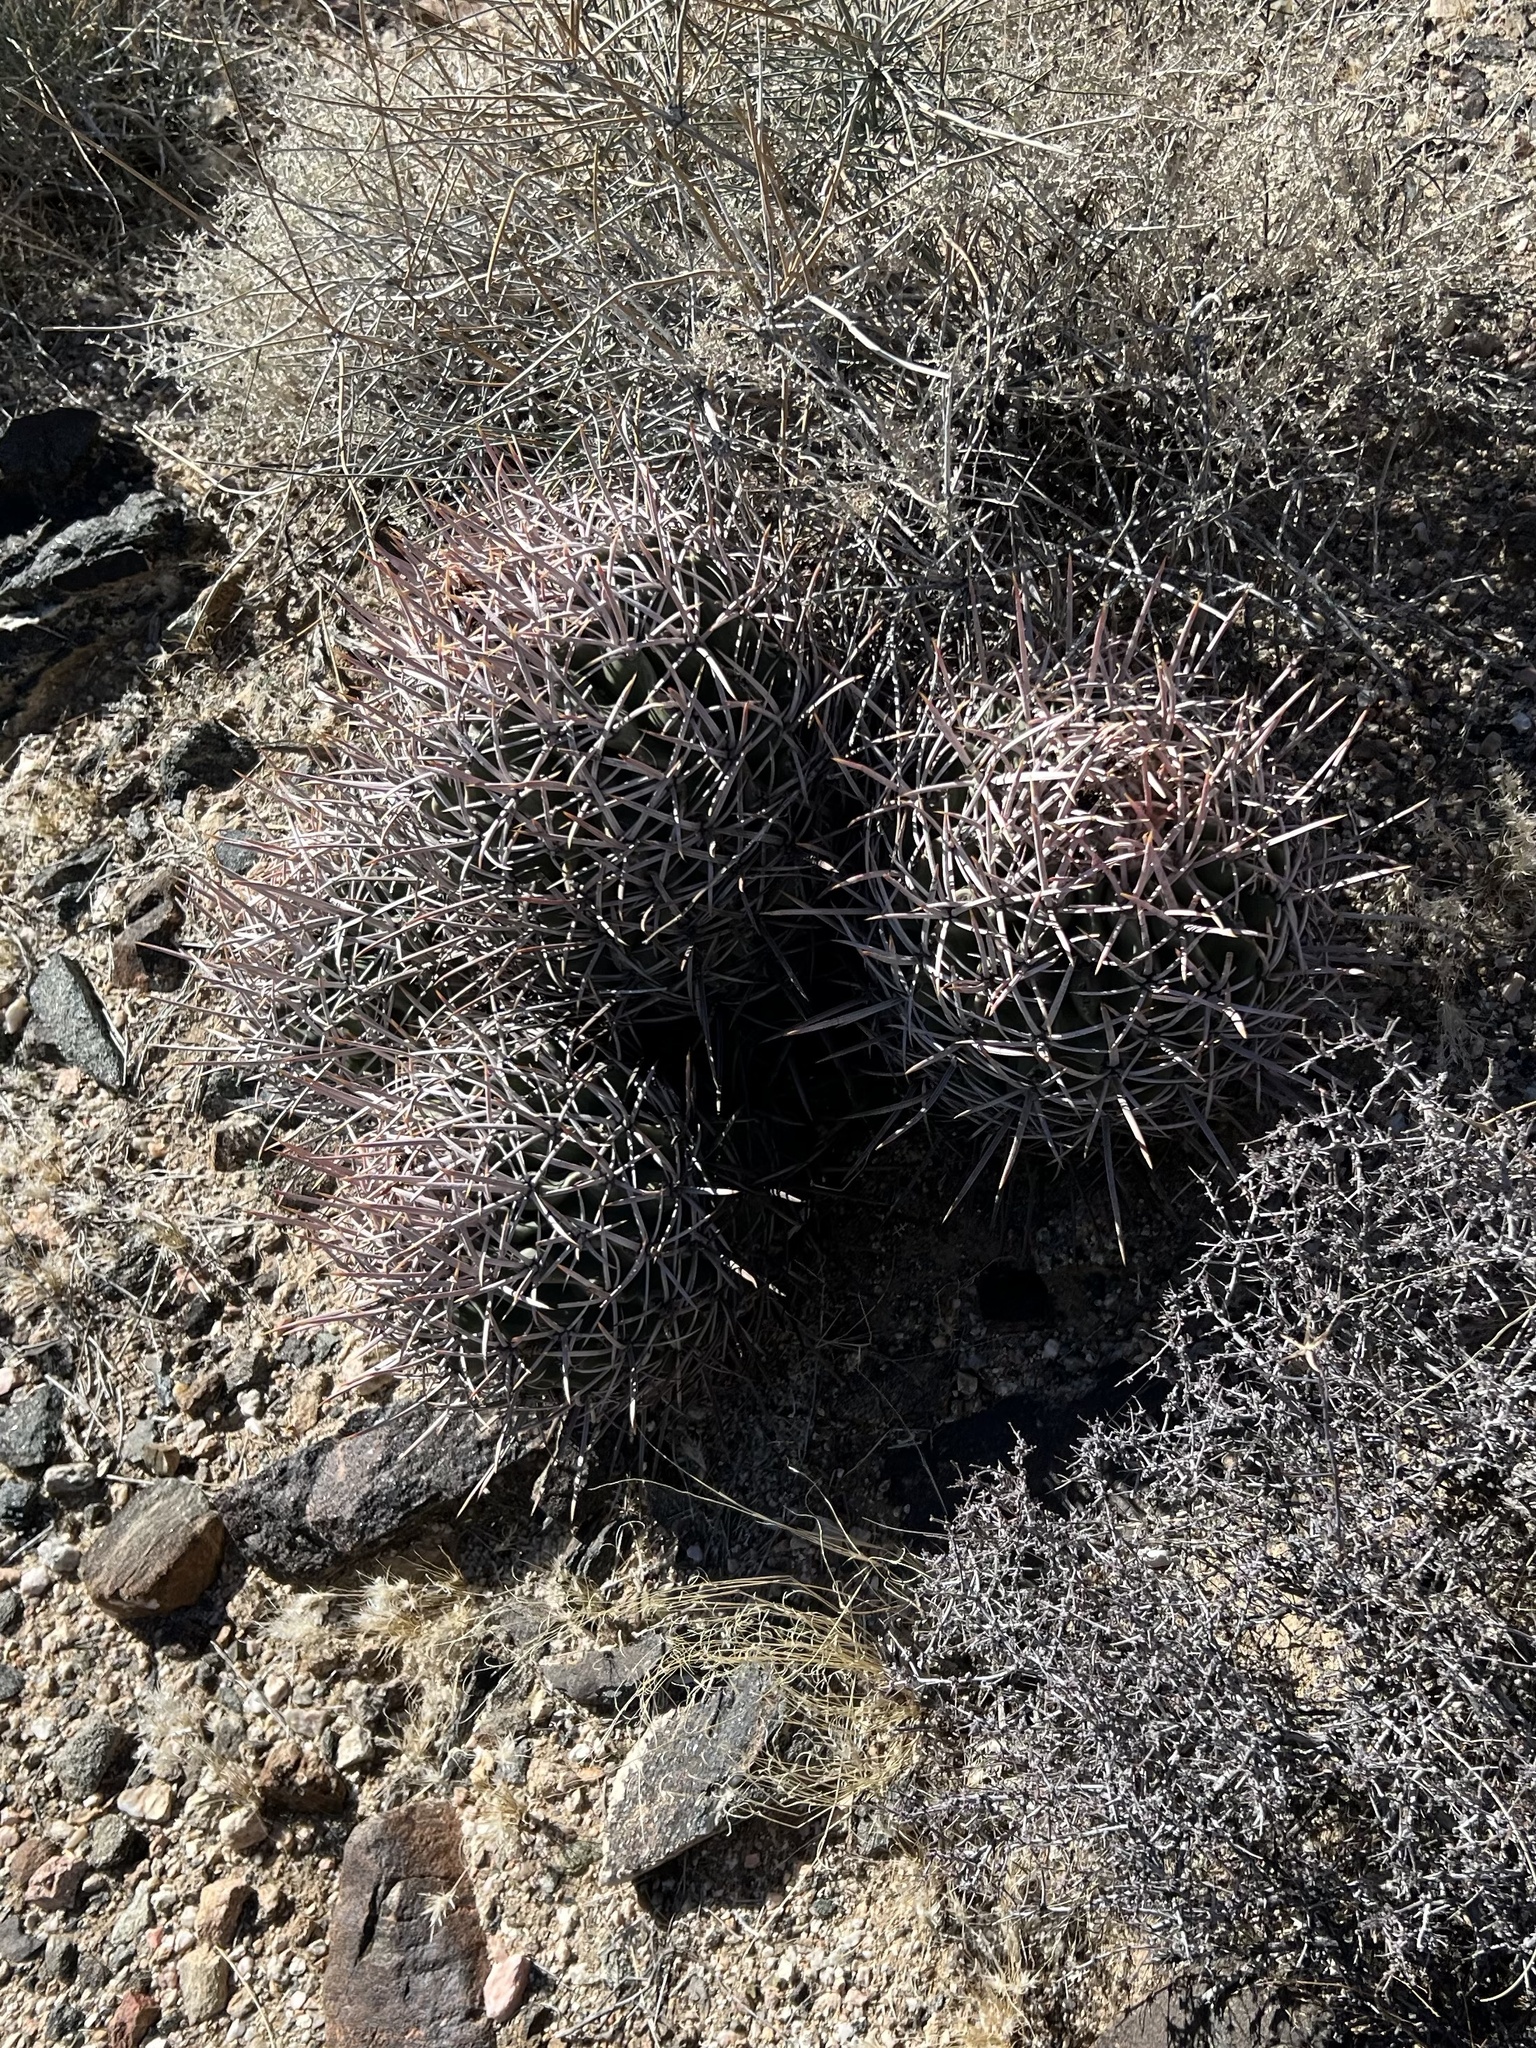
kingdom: Plantae
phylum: Tracheophyta
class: Magnoliopsida
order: Caryophyllales
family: Cactaceae
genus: Echinocactus
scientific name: Echinocactus polycephalus
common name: Cottontop cactus
